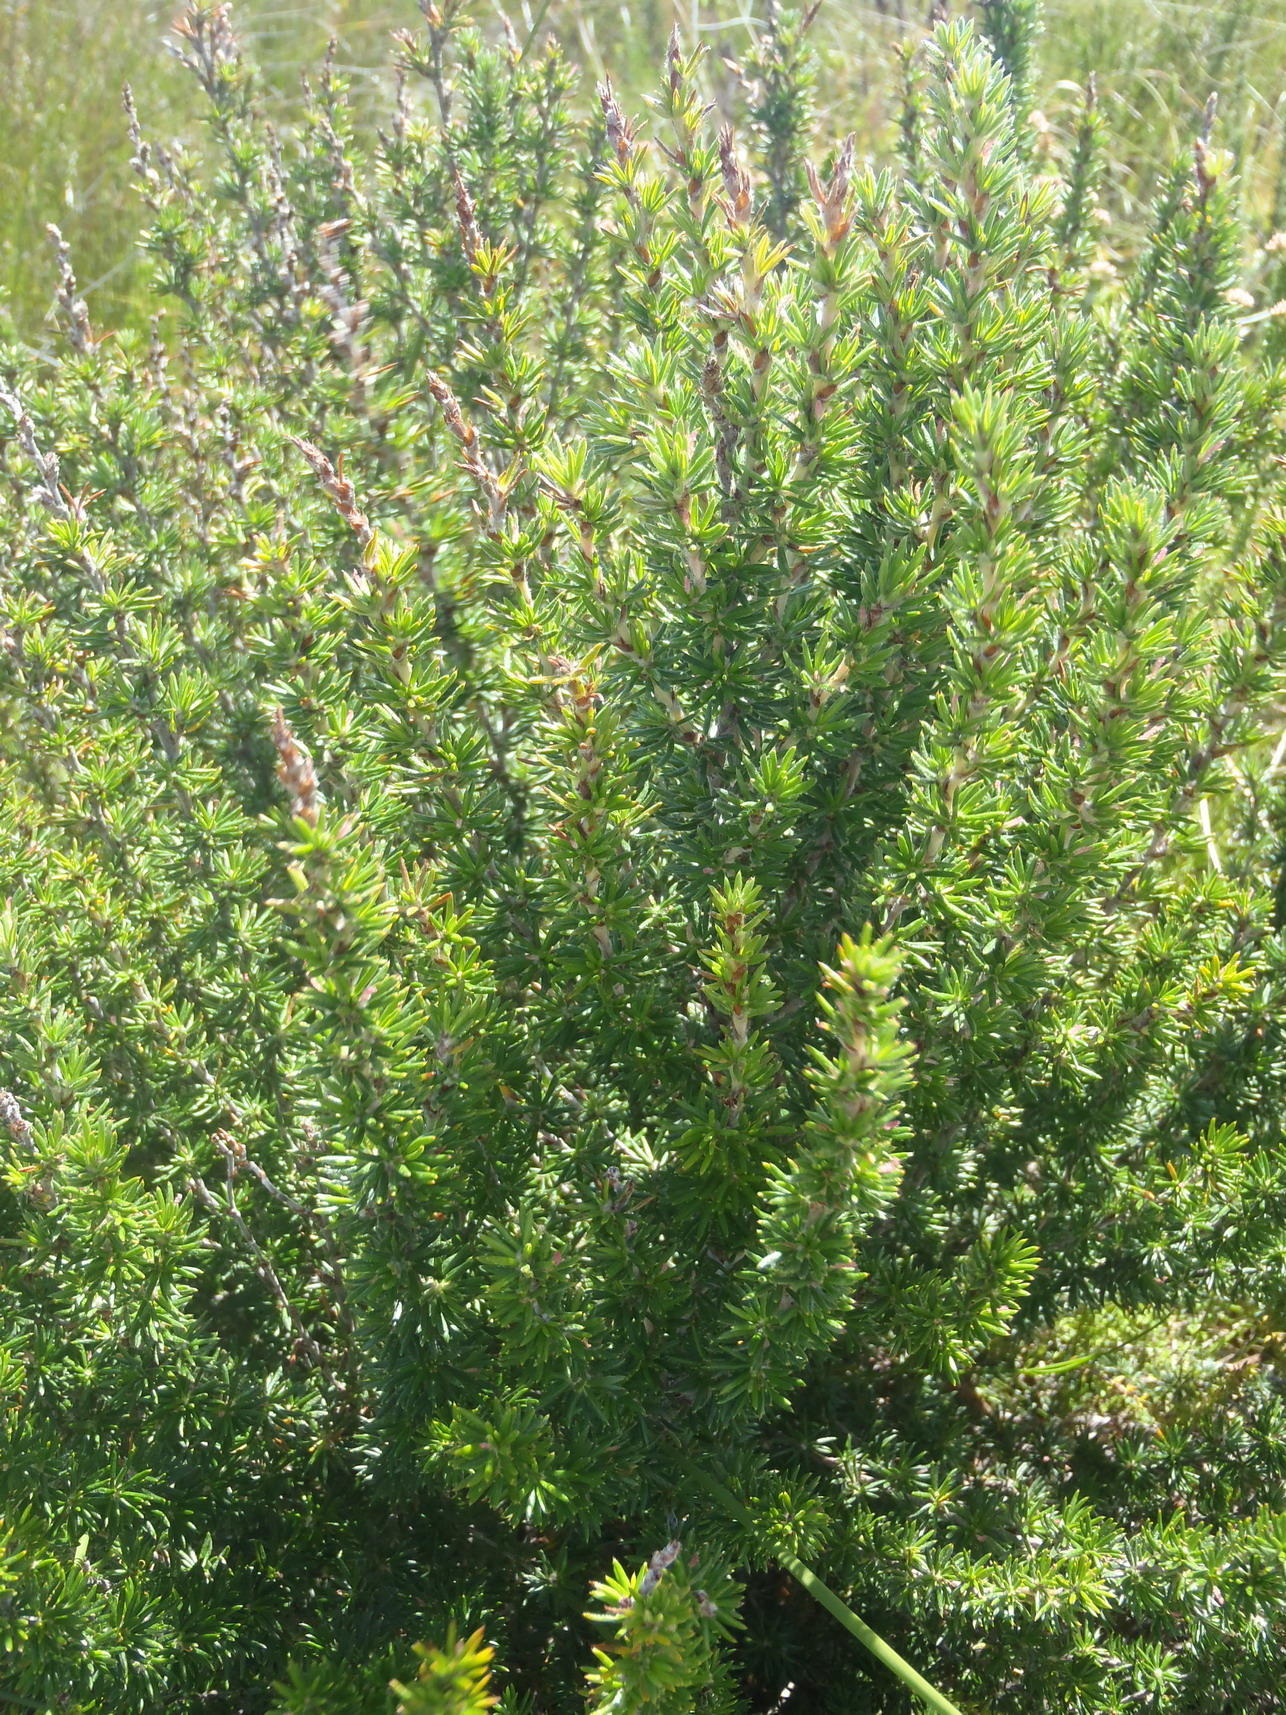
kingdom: Plantae
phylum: Tracheophyta
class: Magnoliopsida
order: Rosales
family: Rosaceae
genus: Cliffortia
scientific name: Cliffortia stricta
